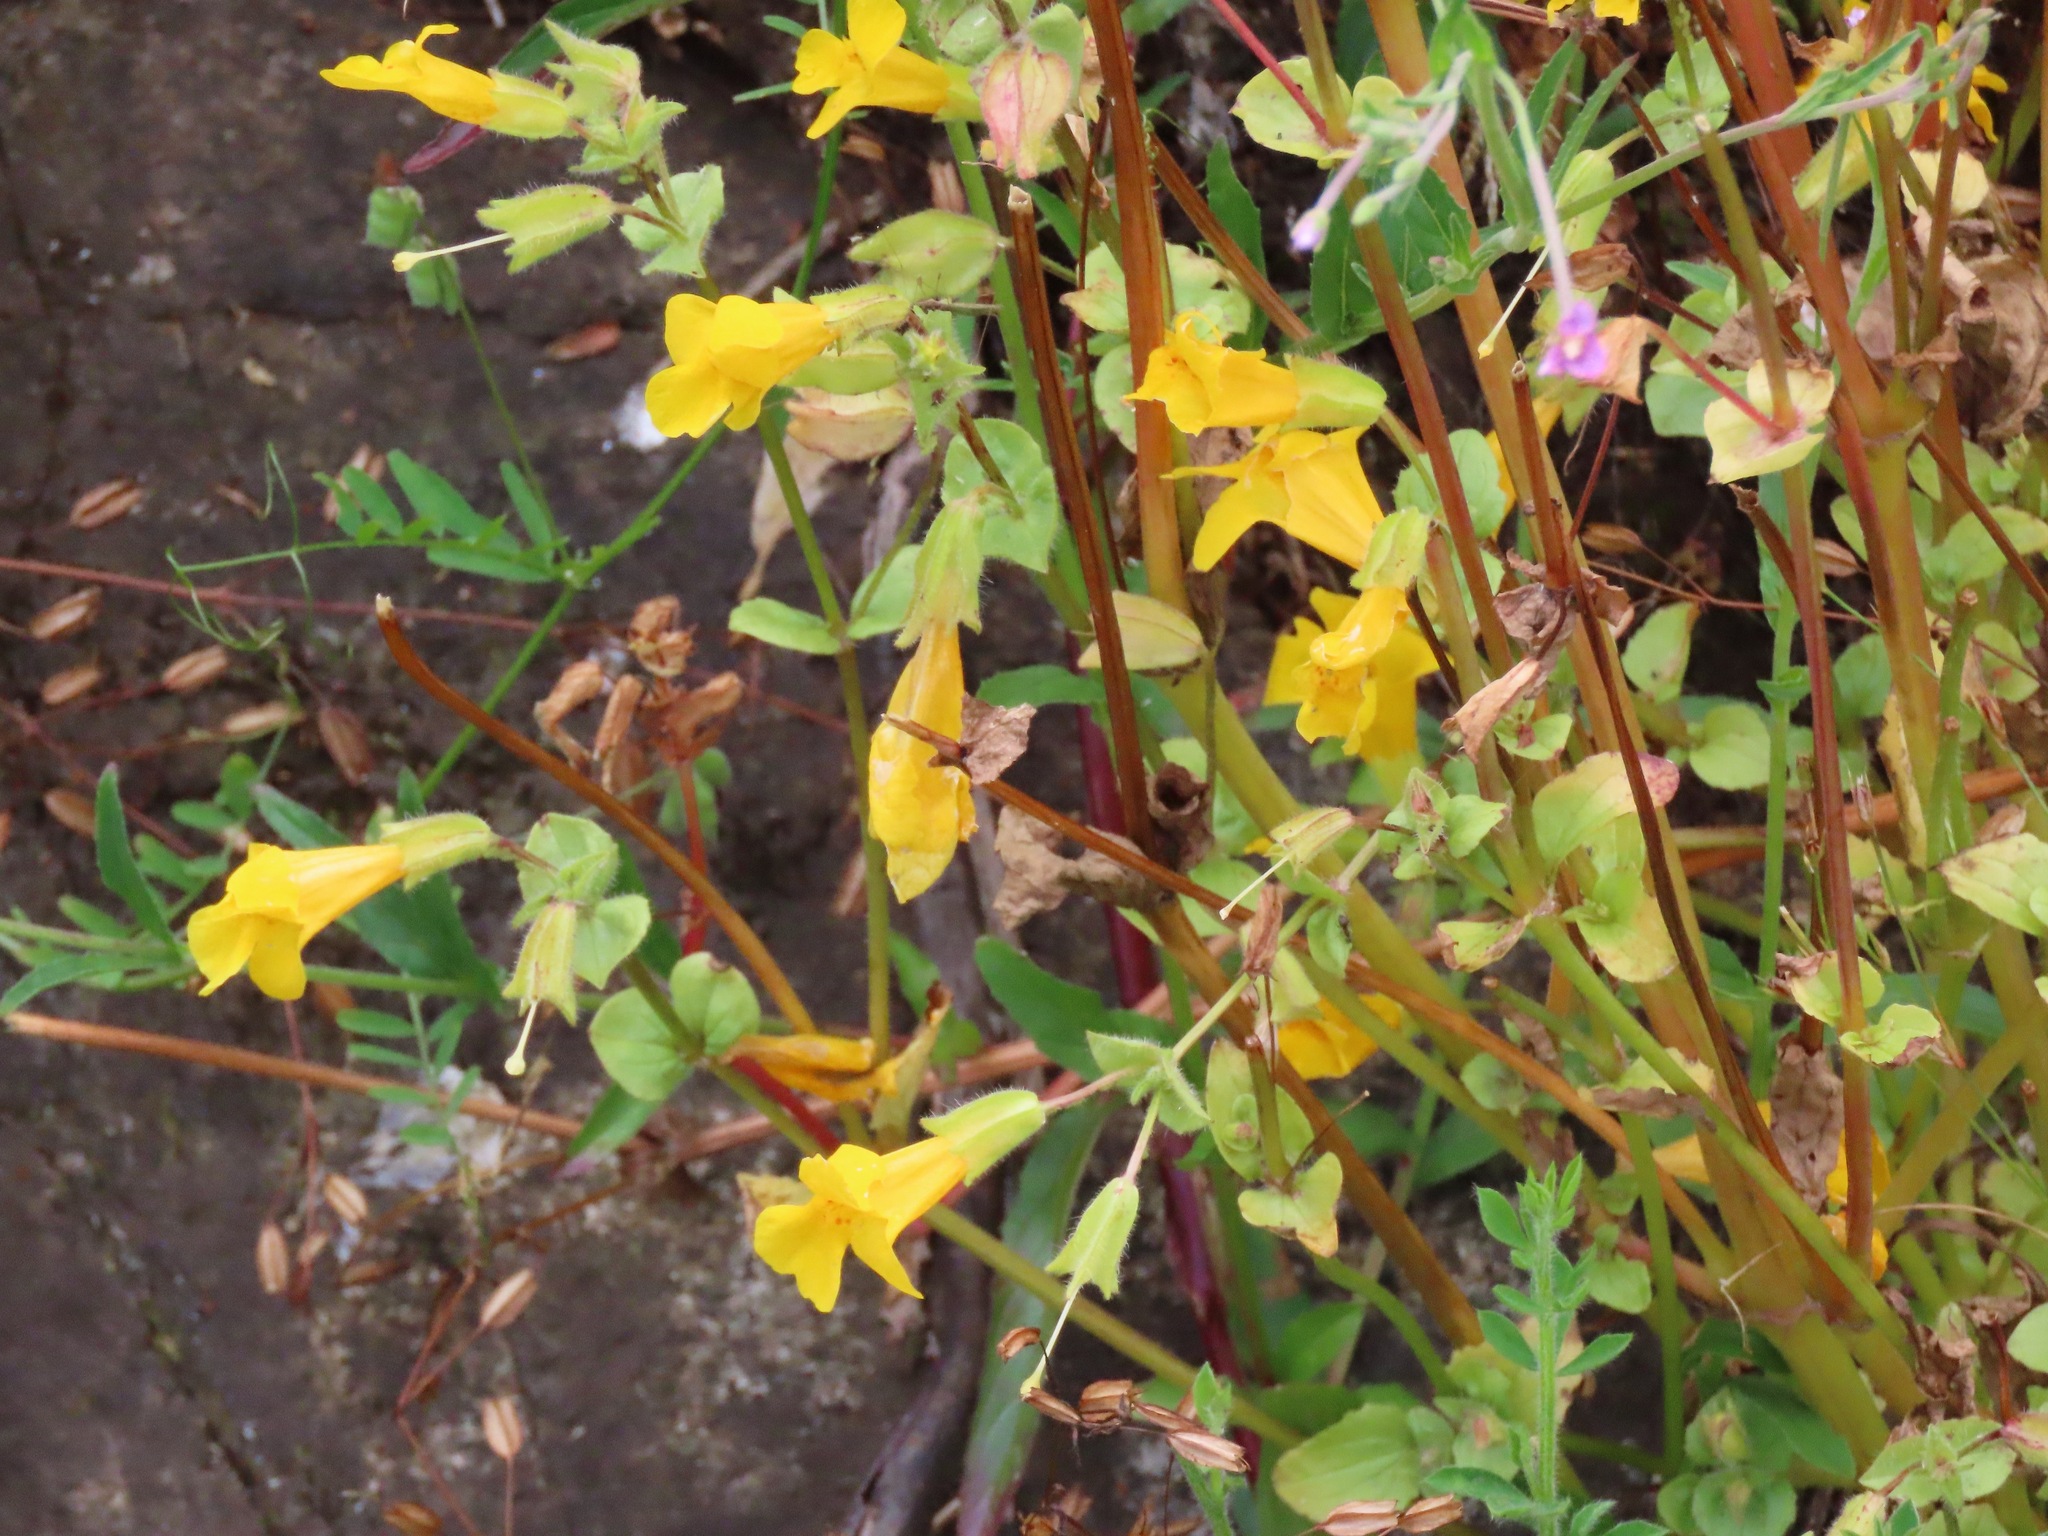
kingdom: Plantae
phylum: Tracheophyta
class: Magnoliopsida
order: Lamiales
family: Phrymaceae
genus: Erythranthe
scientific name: Erythranthe guttata
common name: Monkeyflower
